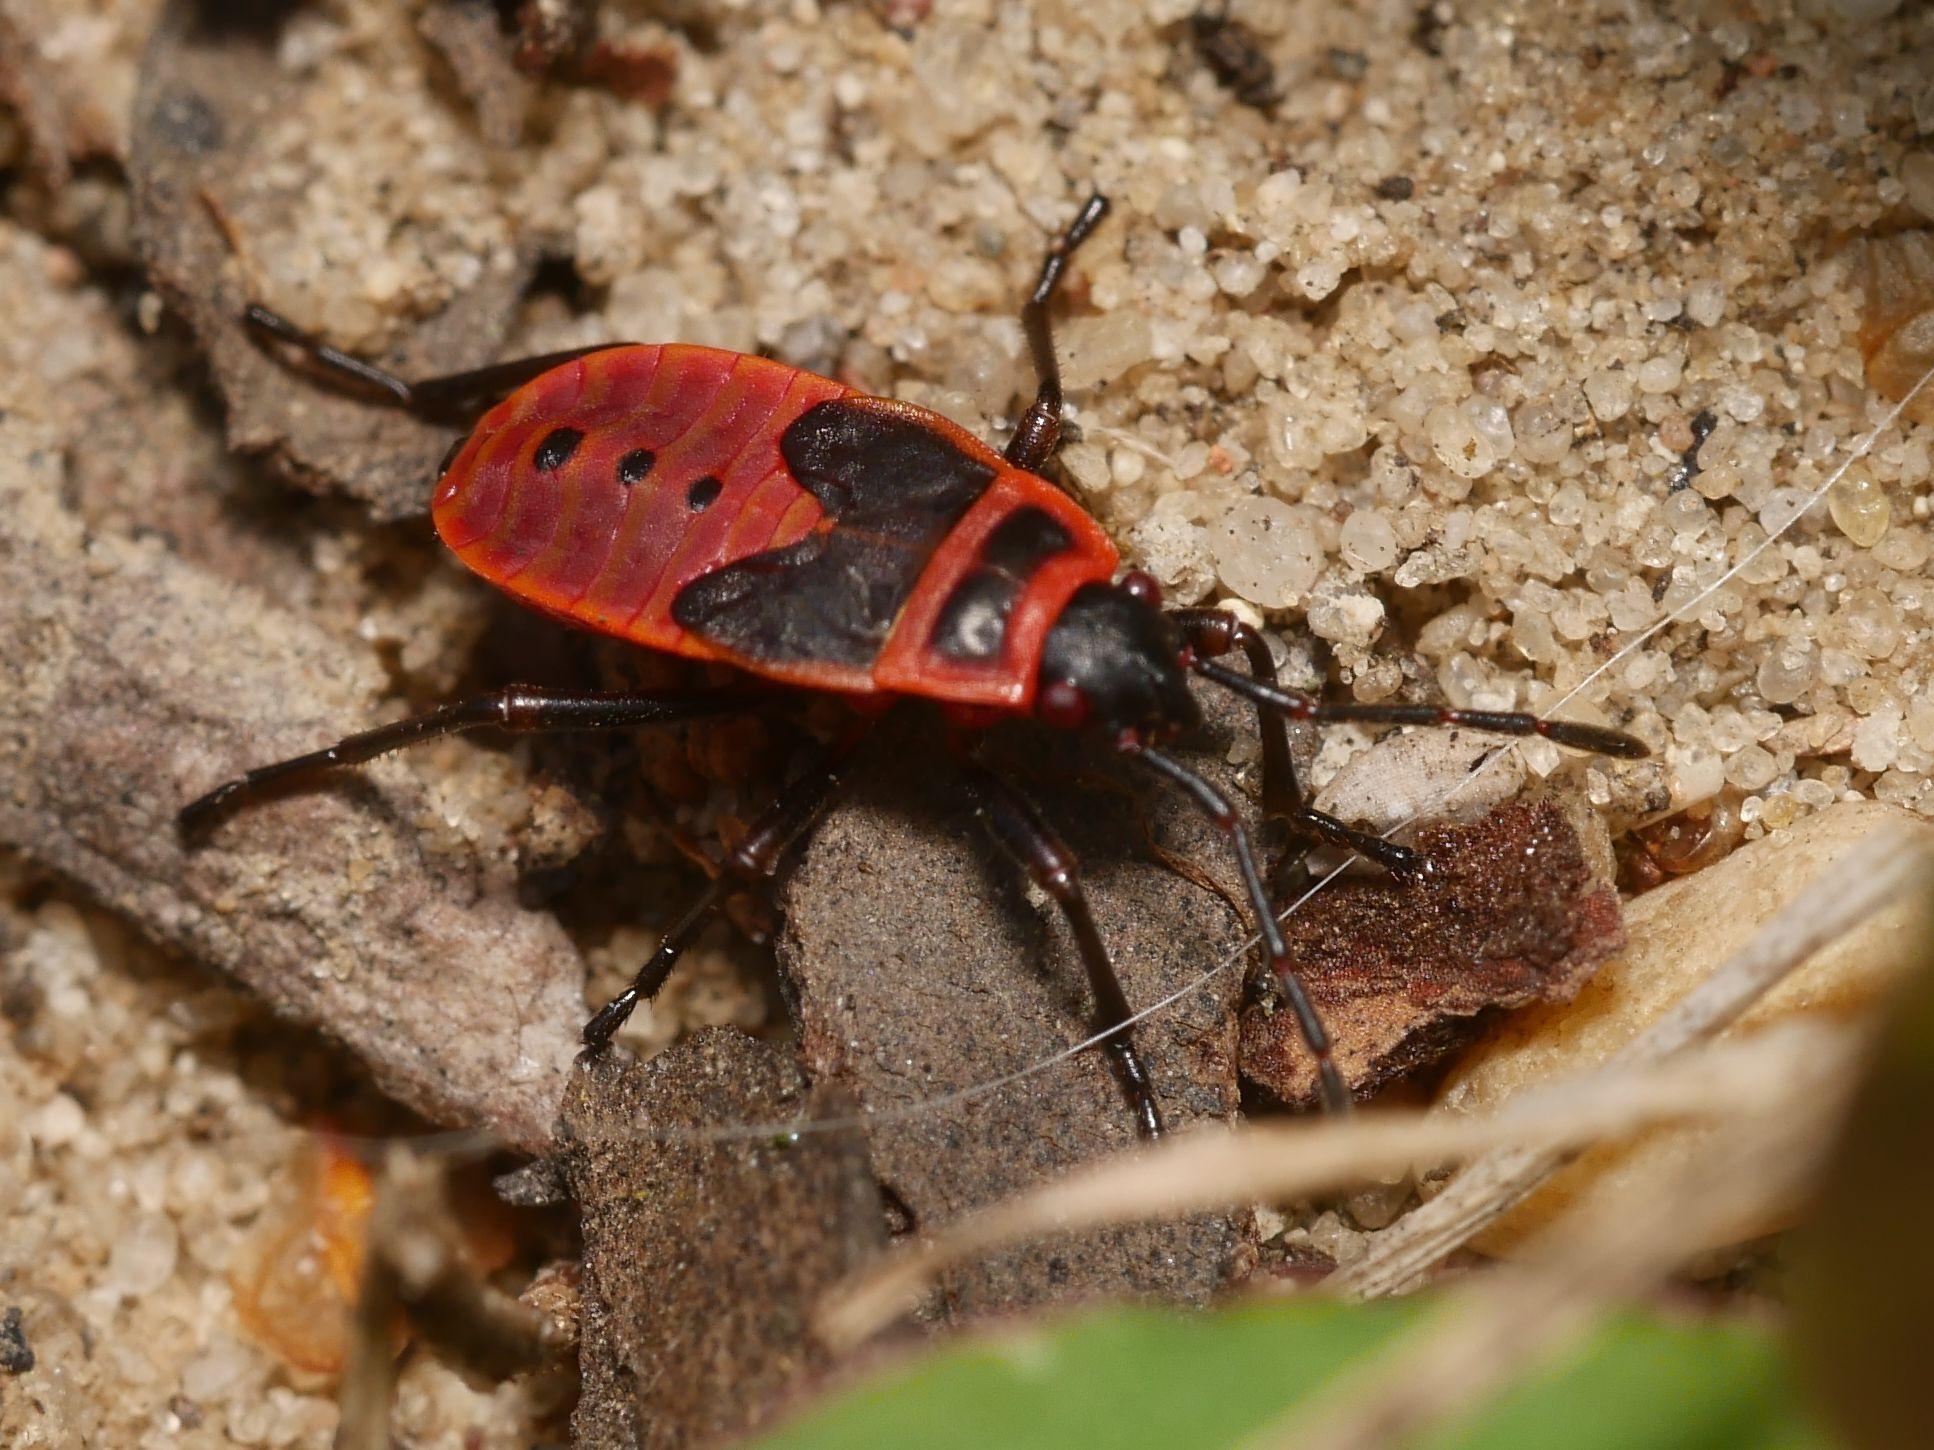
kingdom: Animalia
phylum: Arthropoda
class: Insecta
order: Hemiptera
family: Pyrrhocoridae
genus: Pyrrhocoris
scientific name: Pyrrhocoris apterus
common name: Firebug
